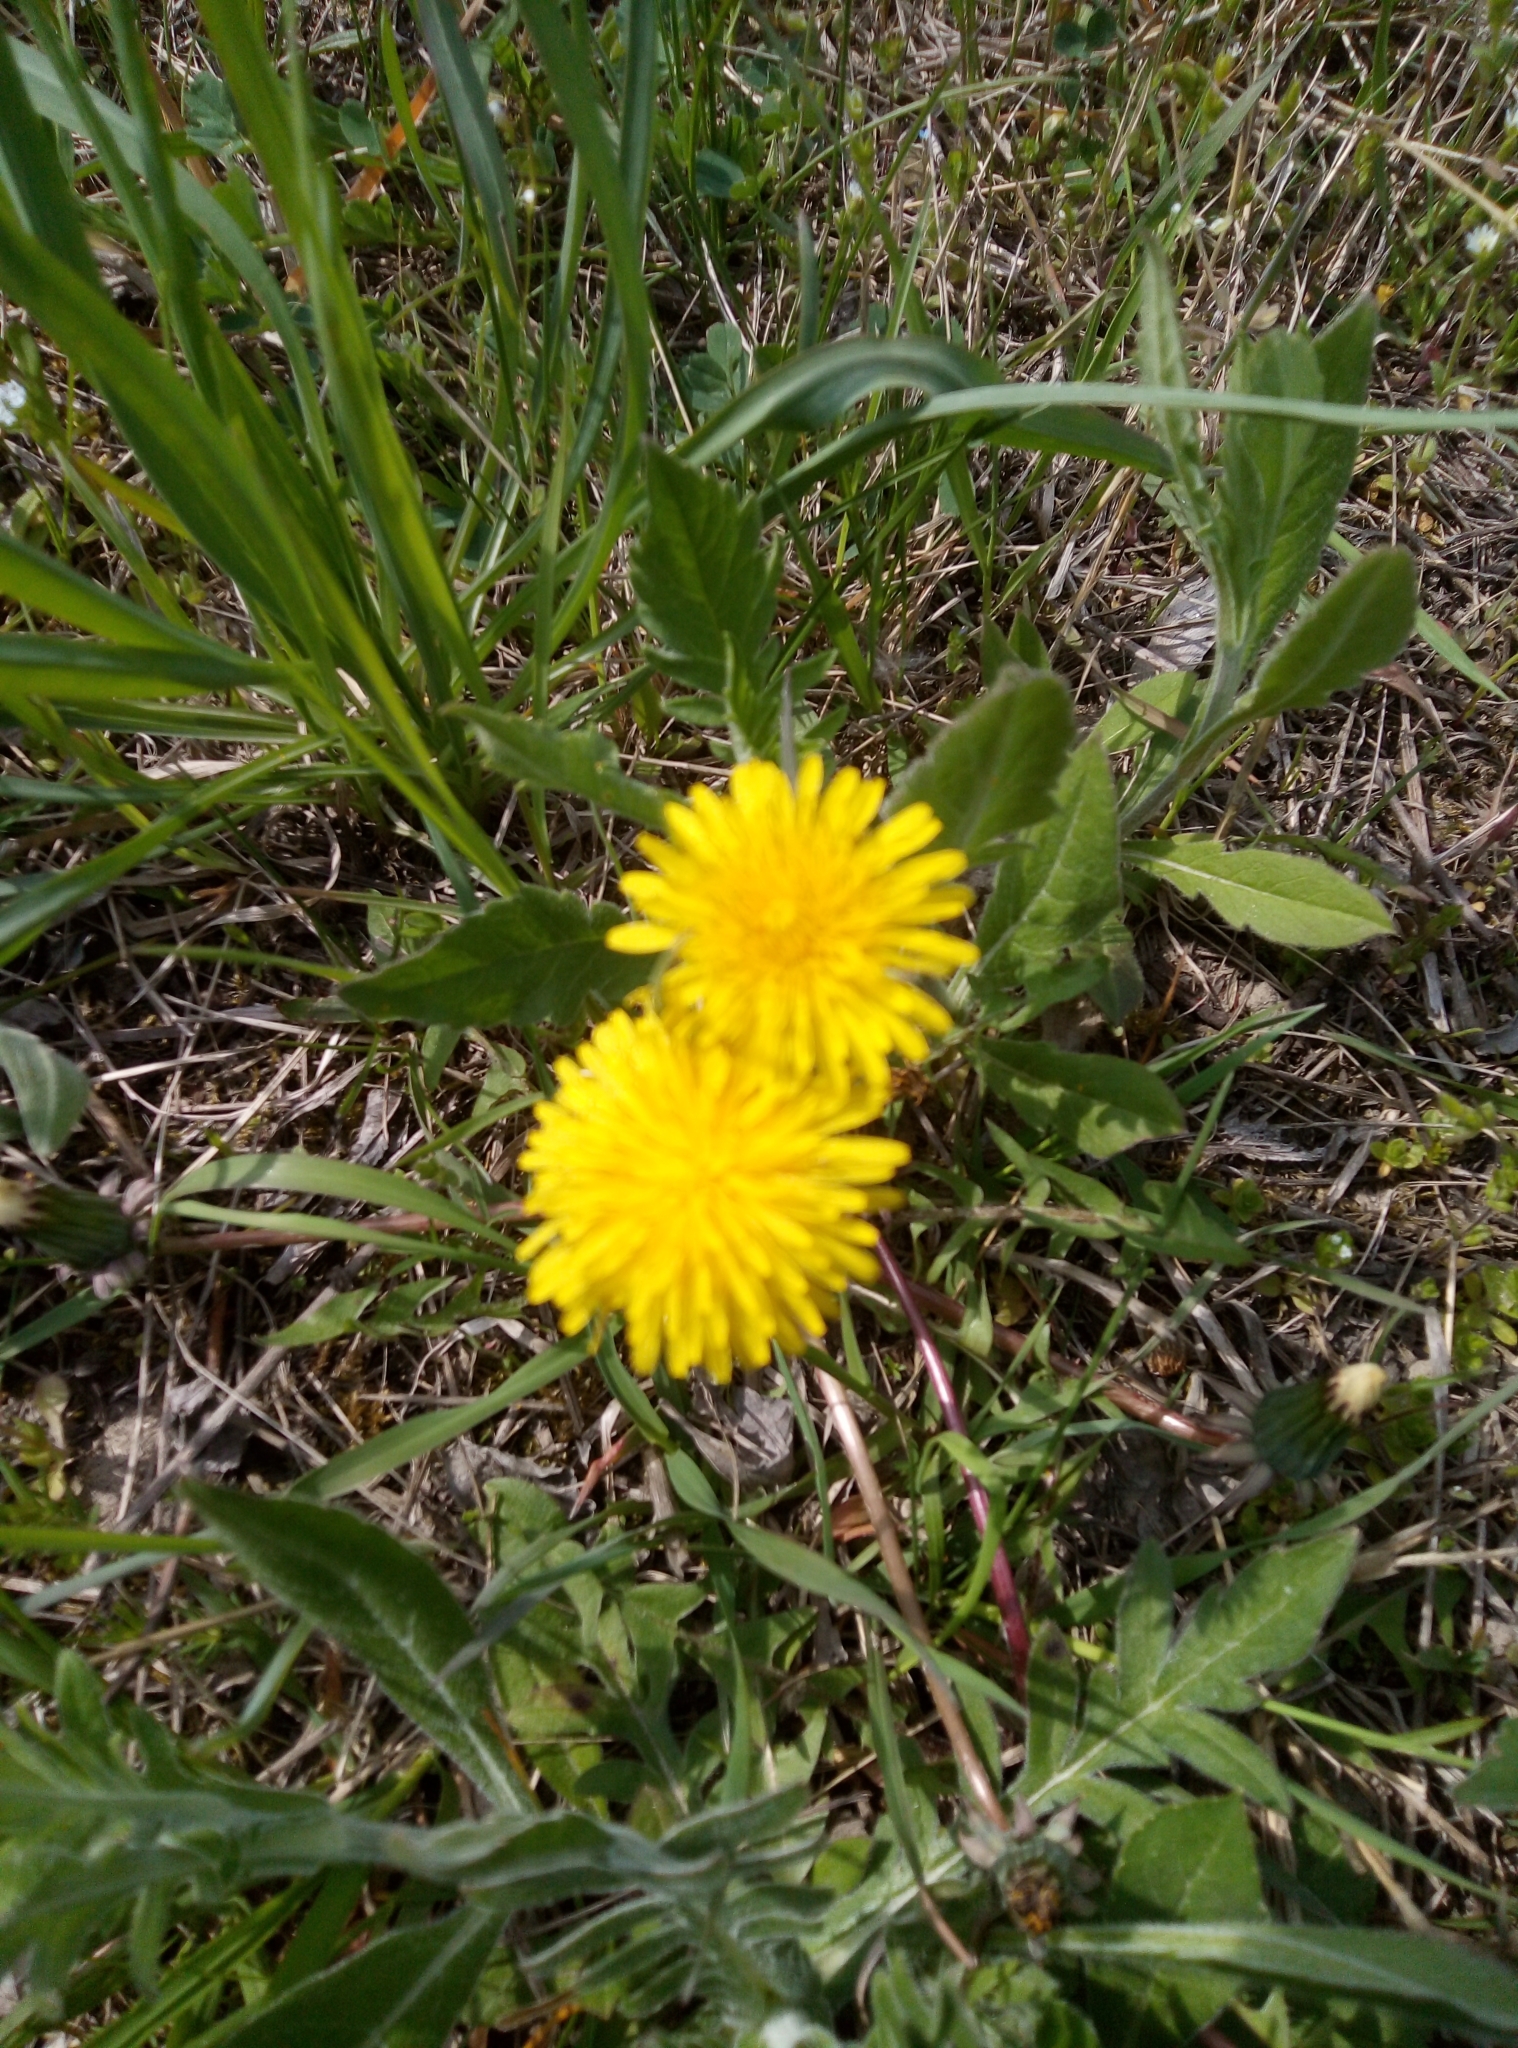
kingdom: Plantae
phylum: Tracheophyta
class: Magnoliopsida
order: Asterales
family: Asteraceae
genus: Taraxacum
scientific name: Taraxacum officinale
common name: Common dandelion
